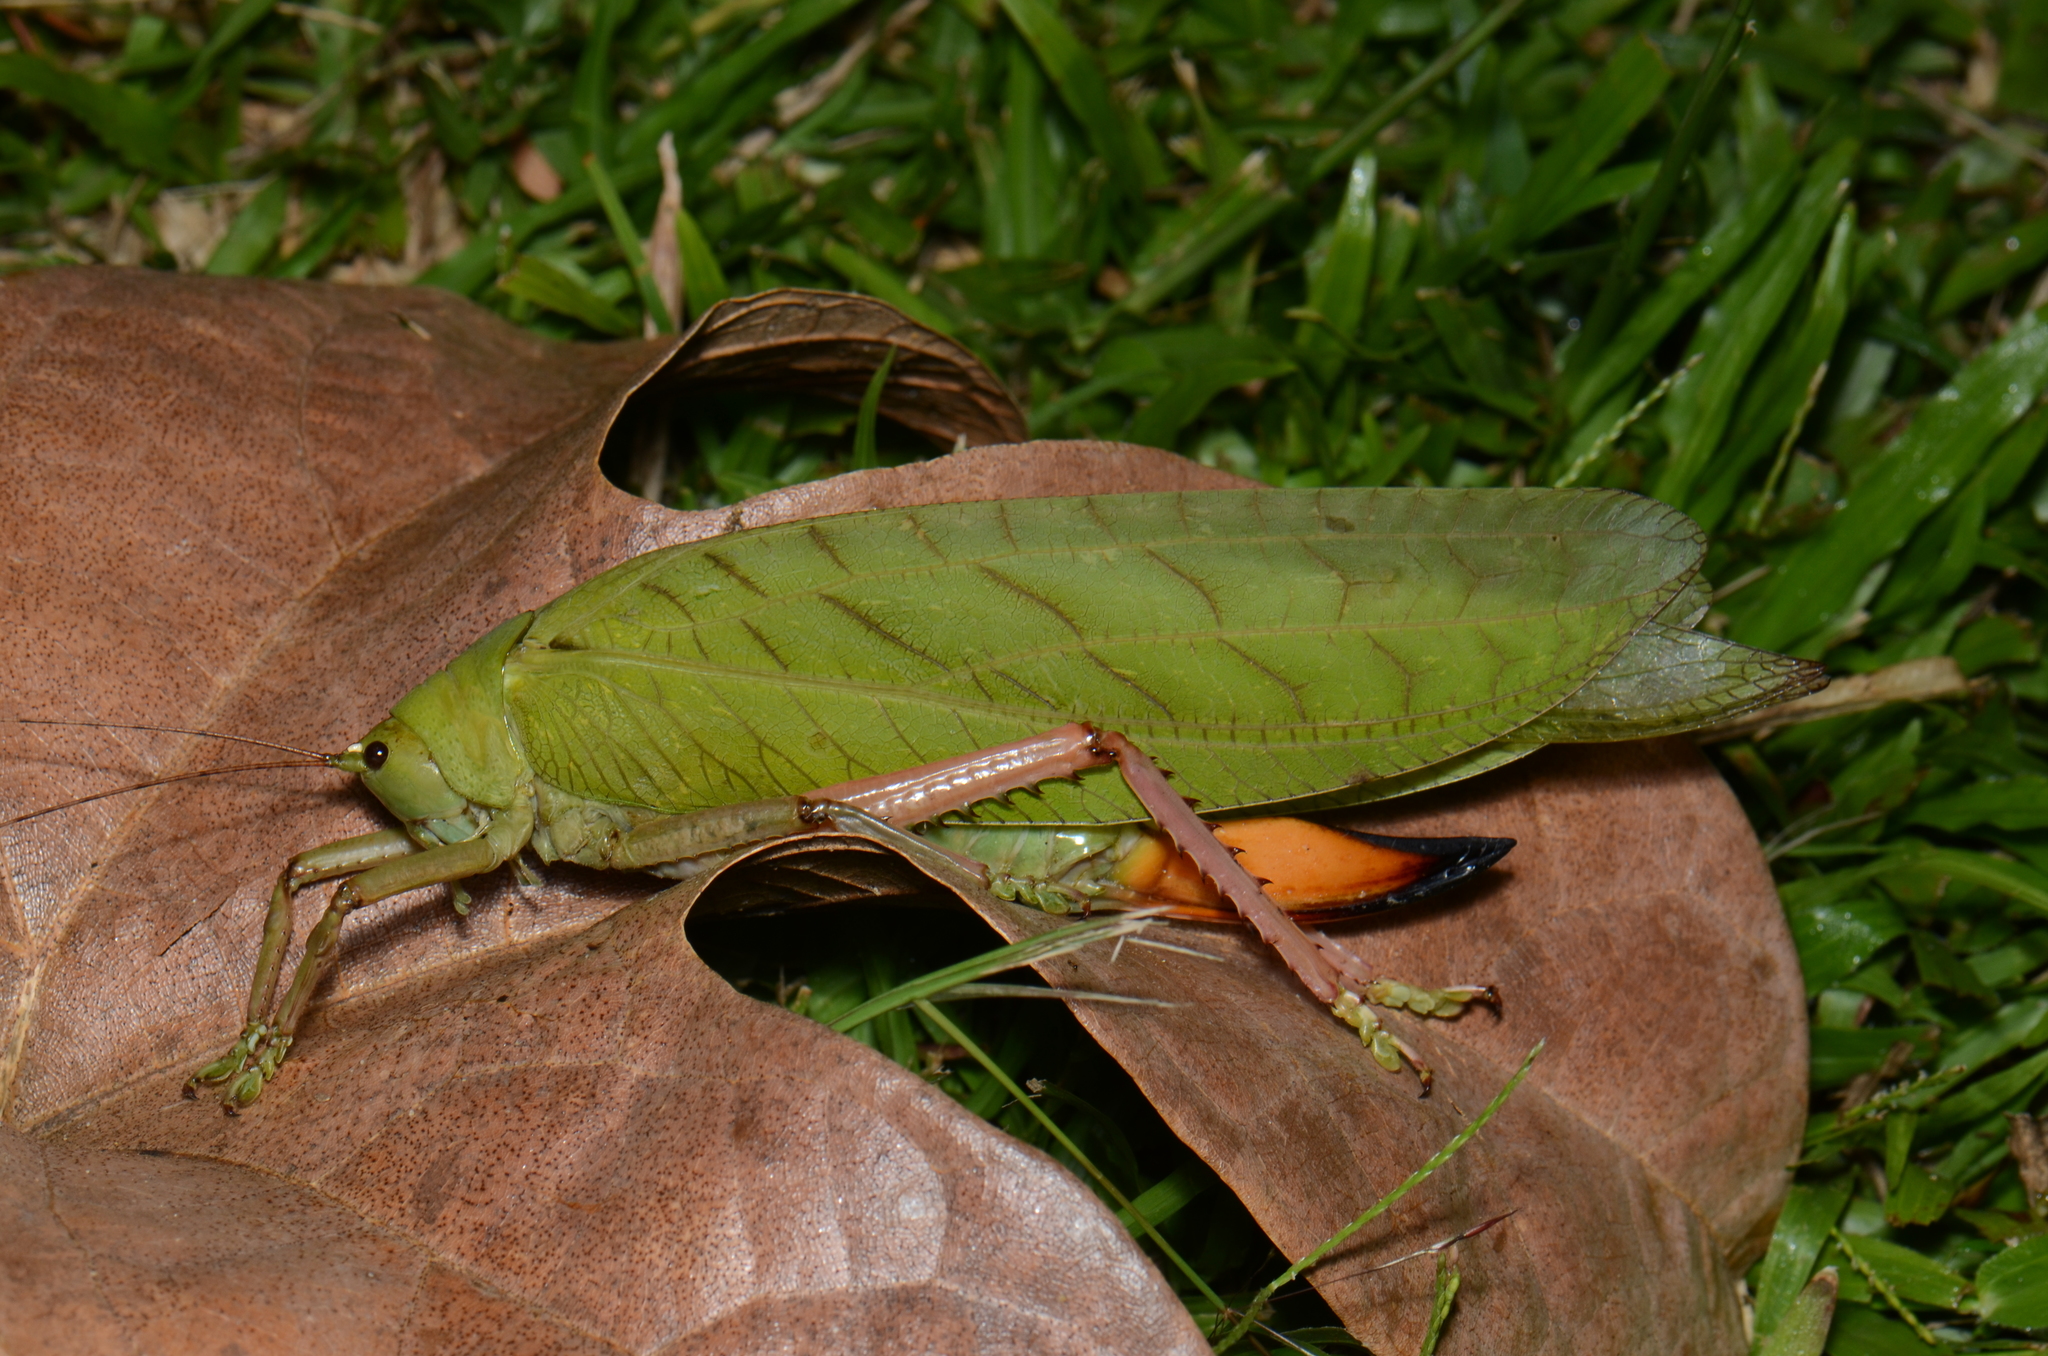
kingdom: Animalia
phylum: Arthropoda
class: Insecta
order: Orthoptera
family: Tettigoniidae
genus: Chloracris
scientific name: Chloracris prasina
